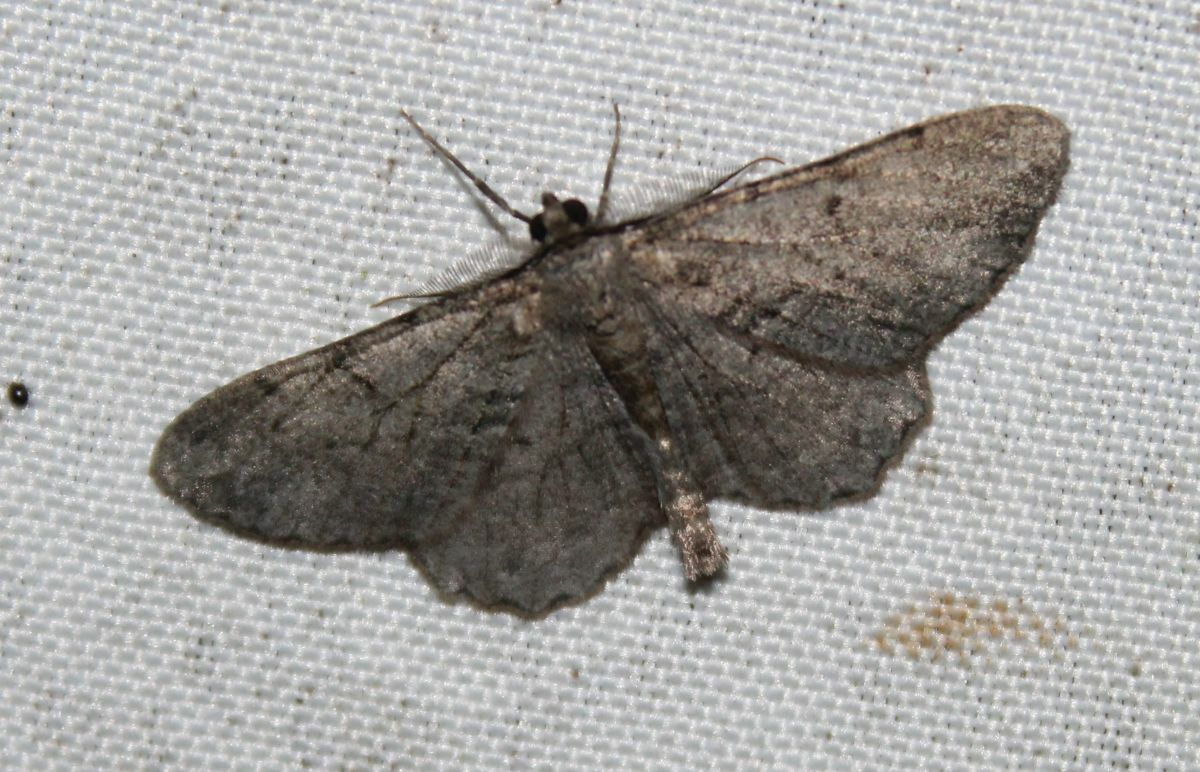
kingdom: Animalia
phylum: Arthropoda
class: Insecta
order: Lepidoptera
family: Geometridae
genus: Peribatodes
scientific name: Peribatodes rhomboidaria
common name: Willow beauty
